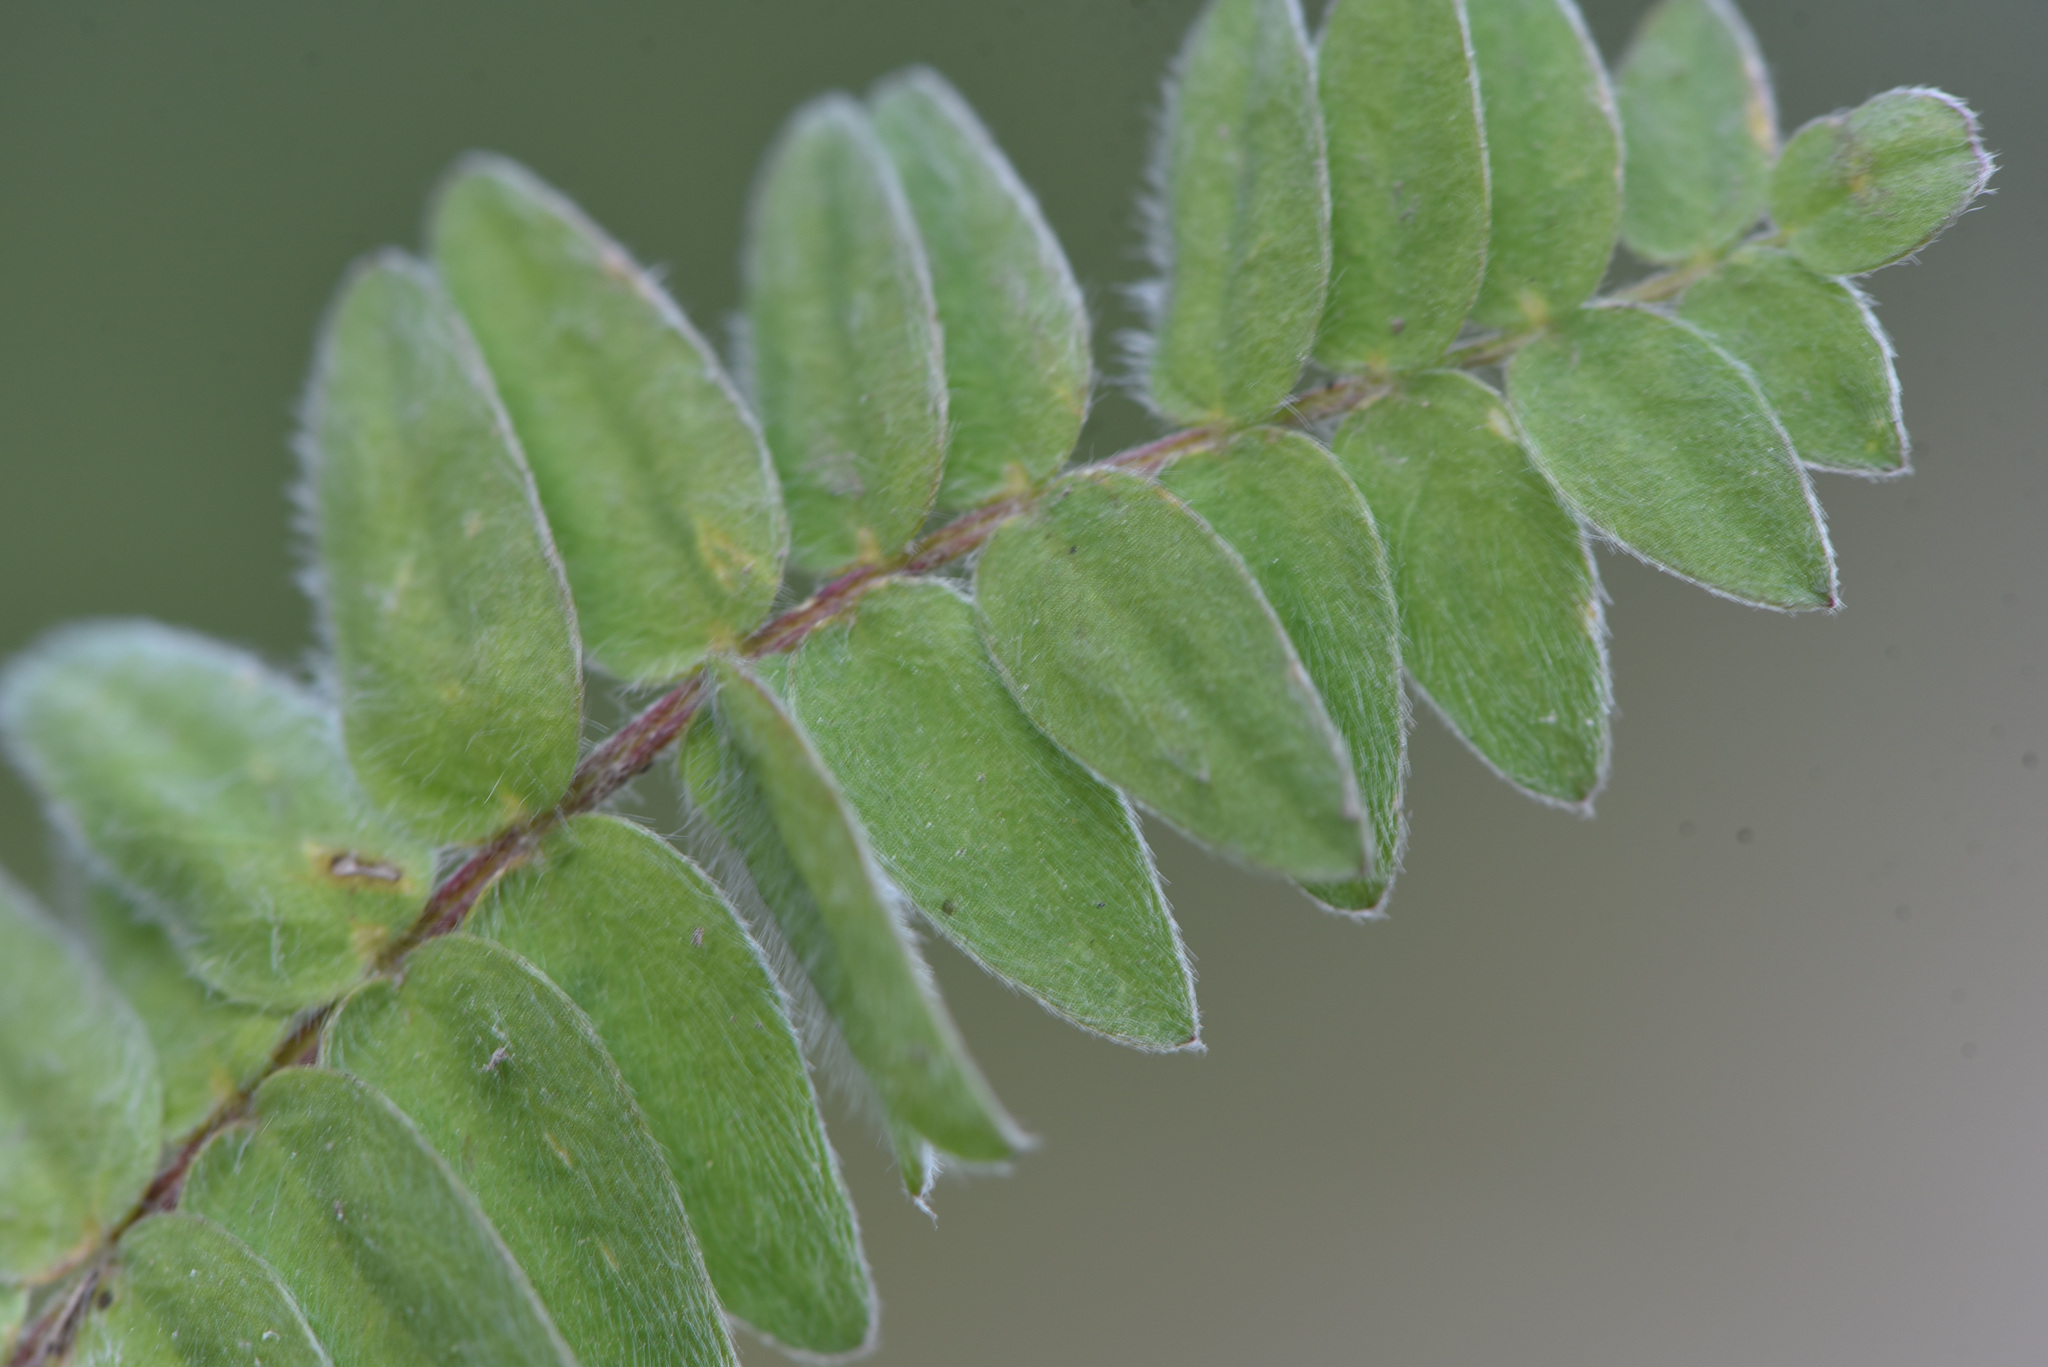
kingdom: Plantae
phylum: Tracheophyta
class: Magnoliopsida
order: Fabales
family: Fabaceae
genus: Oxytropis
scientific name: Oxytropis deflexa
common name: Stemmed oxytrope
